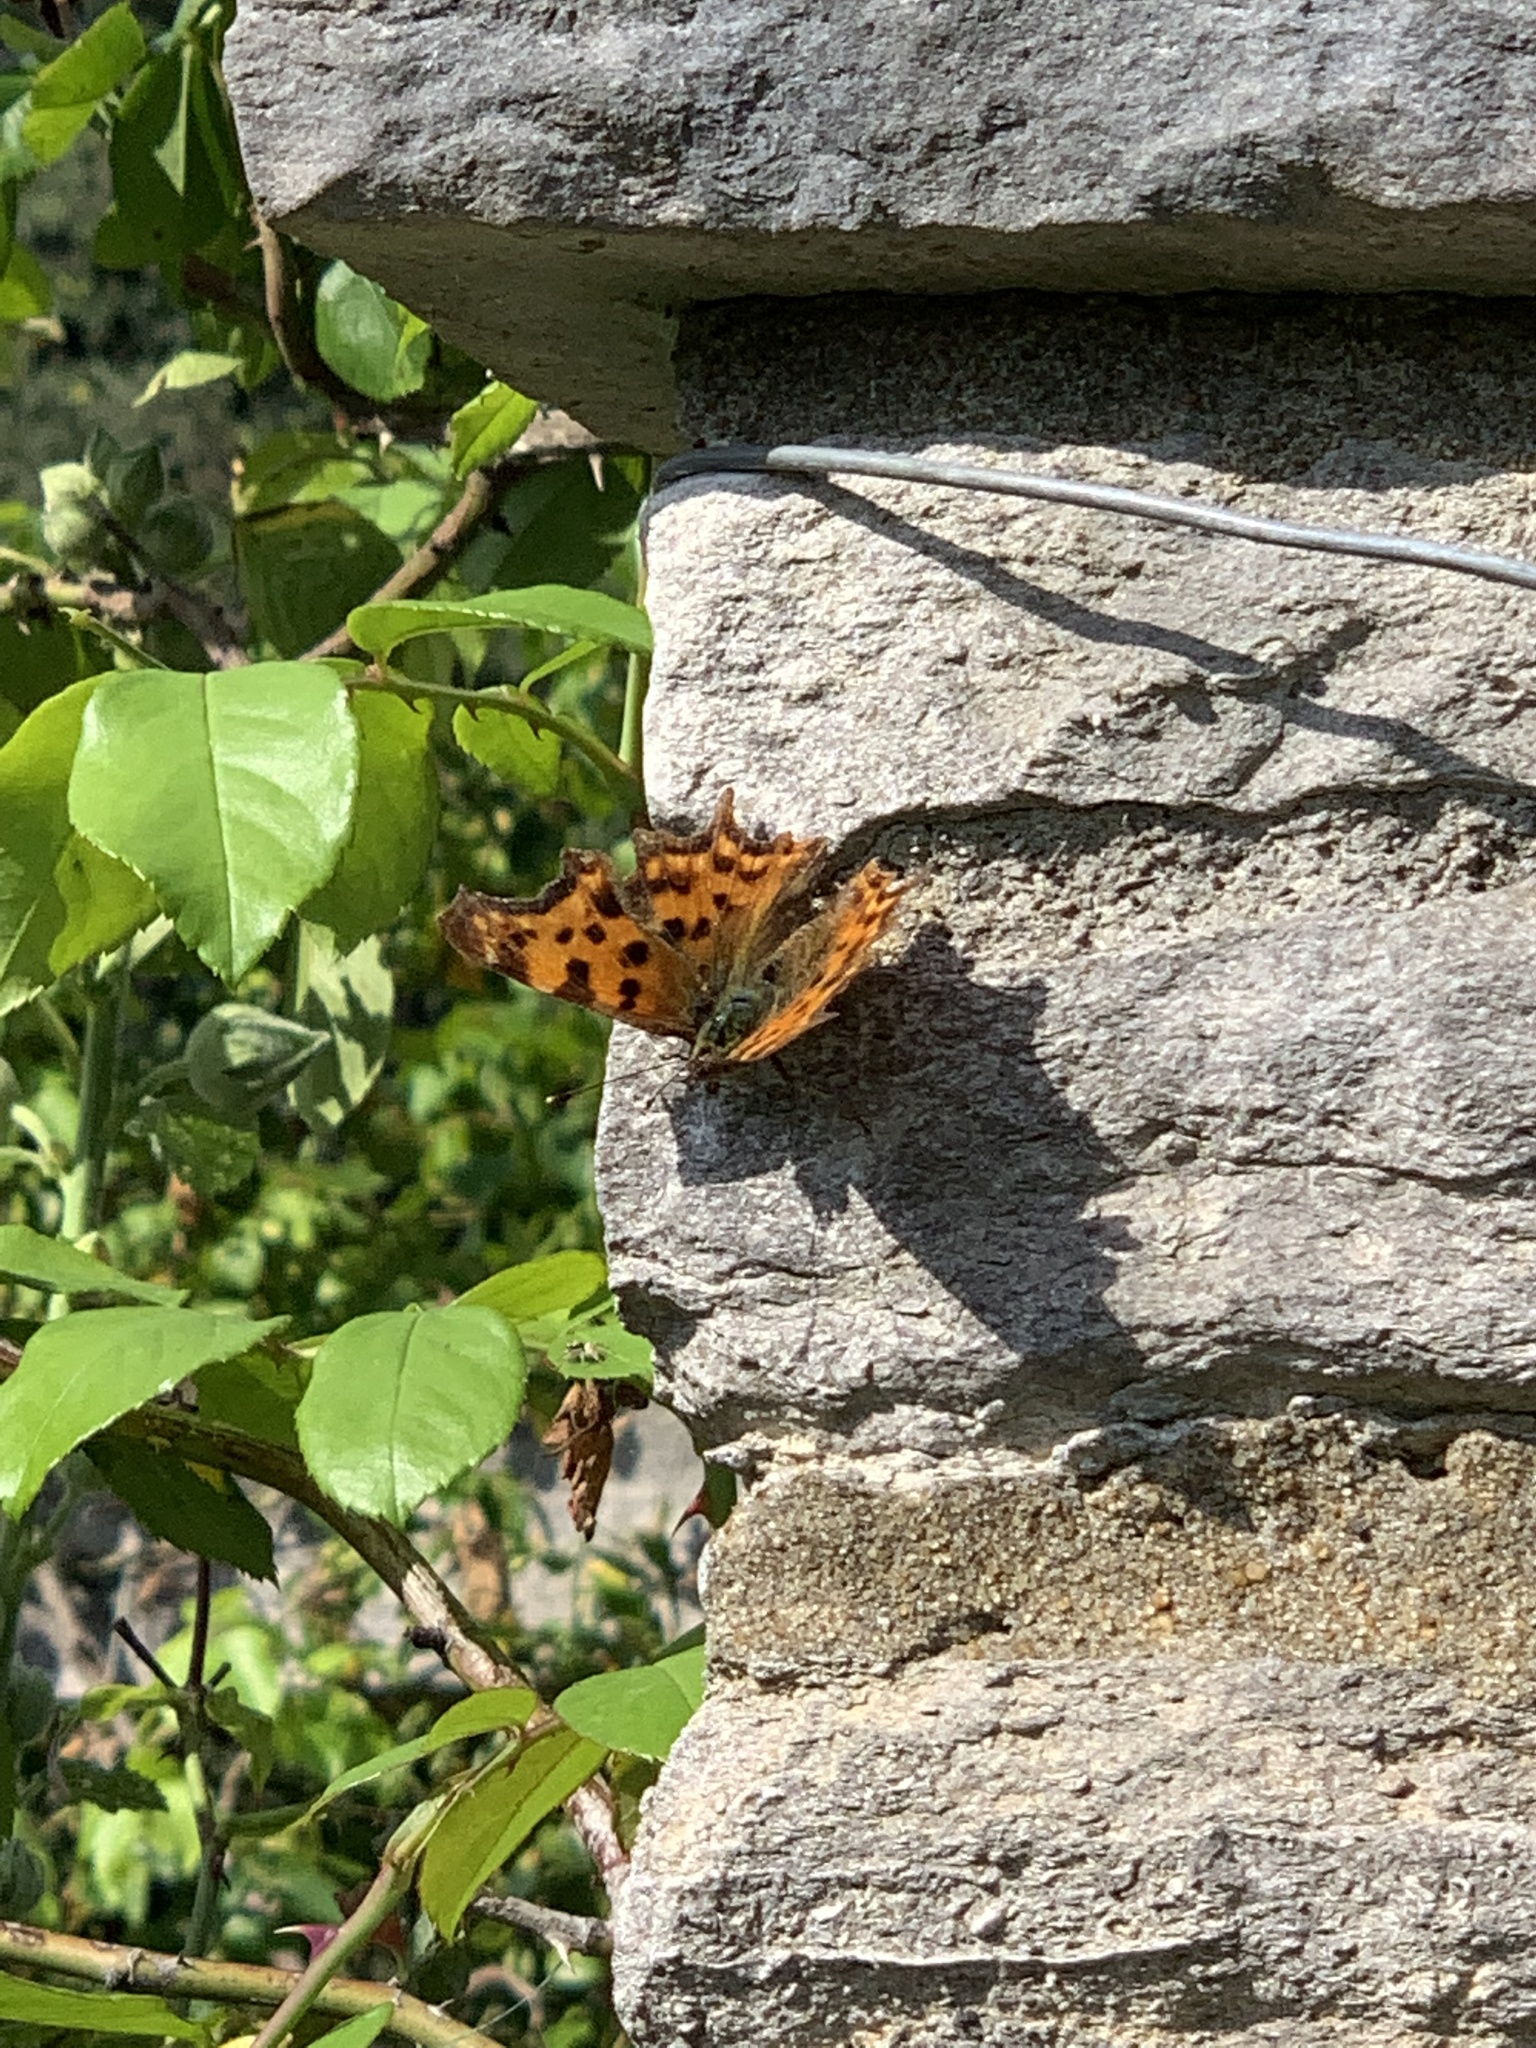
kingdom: Animalia
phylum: Arthropoda
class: Insecta
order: Lepidoptera
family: Nymphalidae
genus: Polygonia
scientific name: Polygonia c-album
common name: Comma
